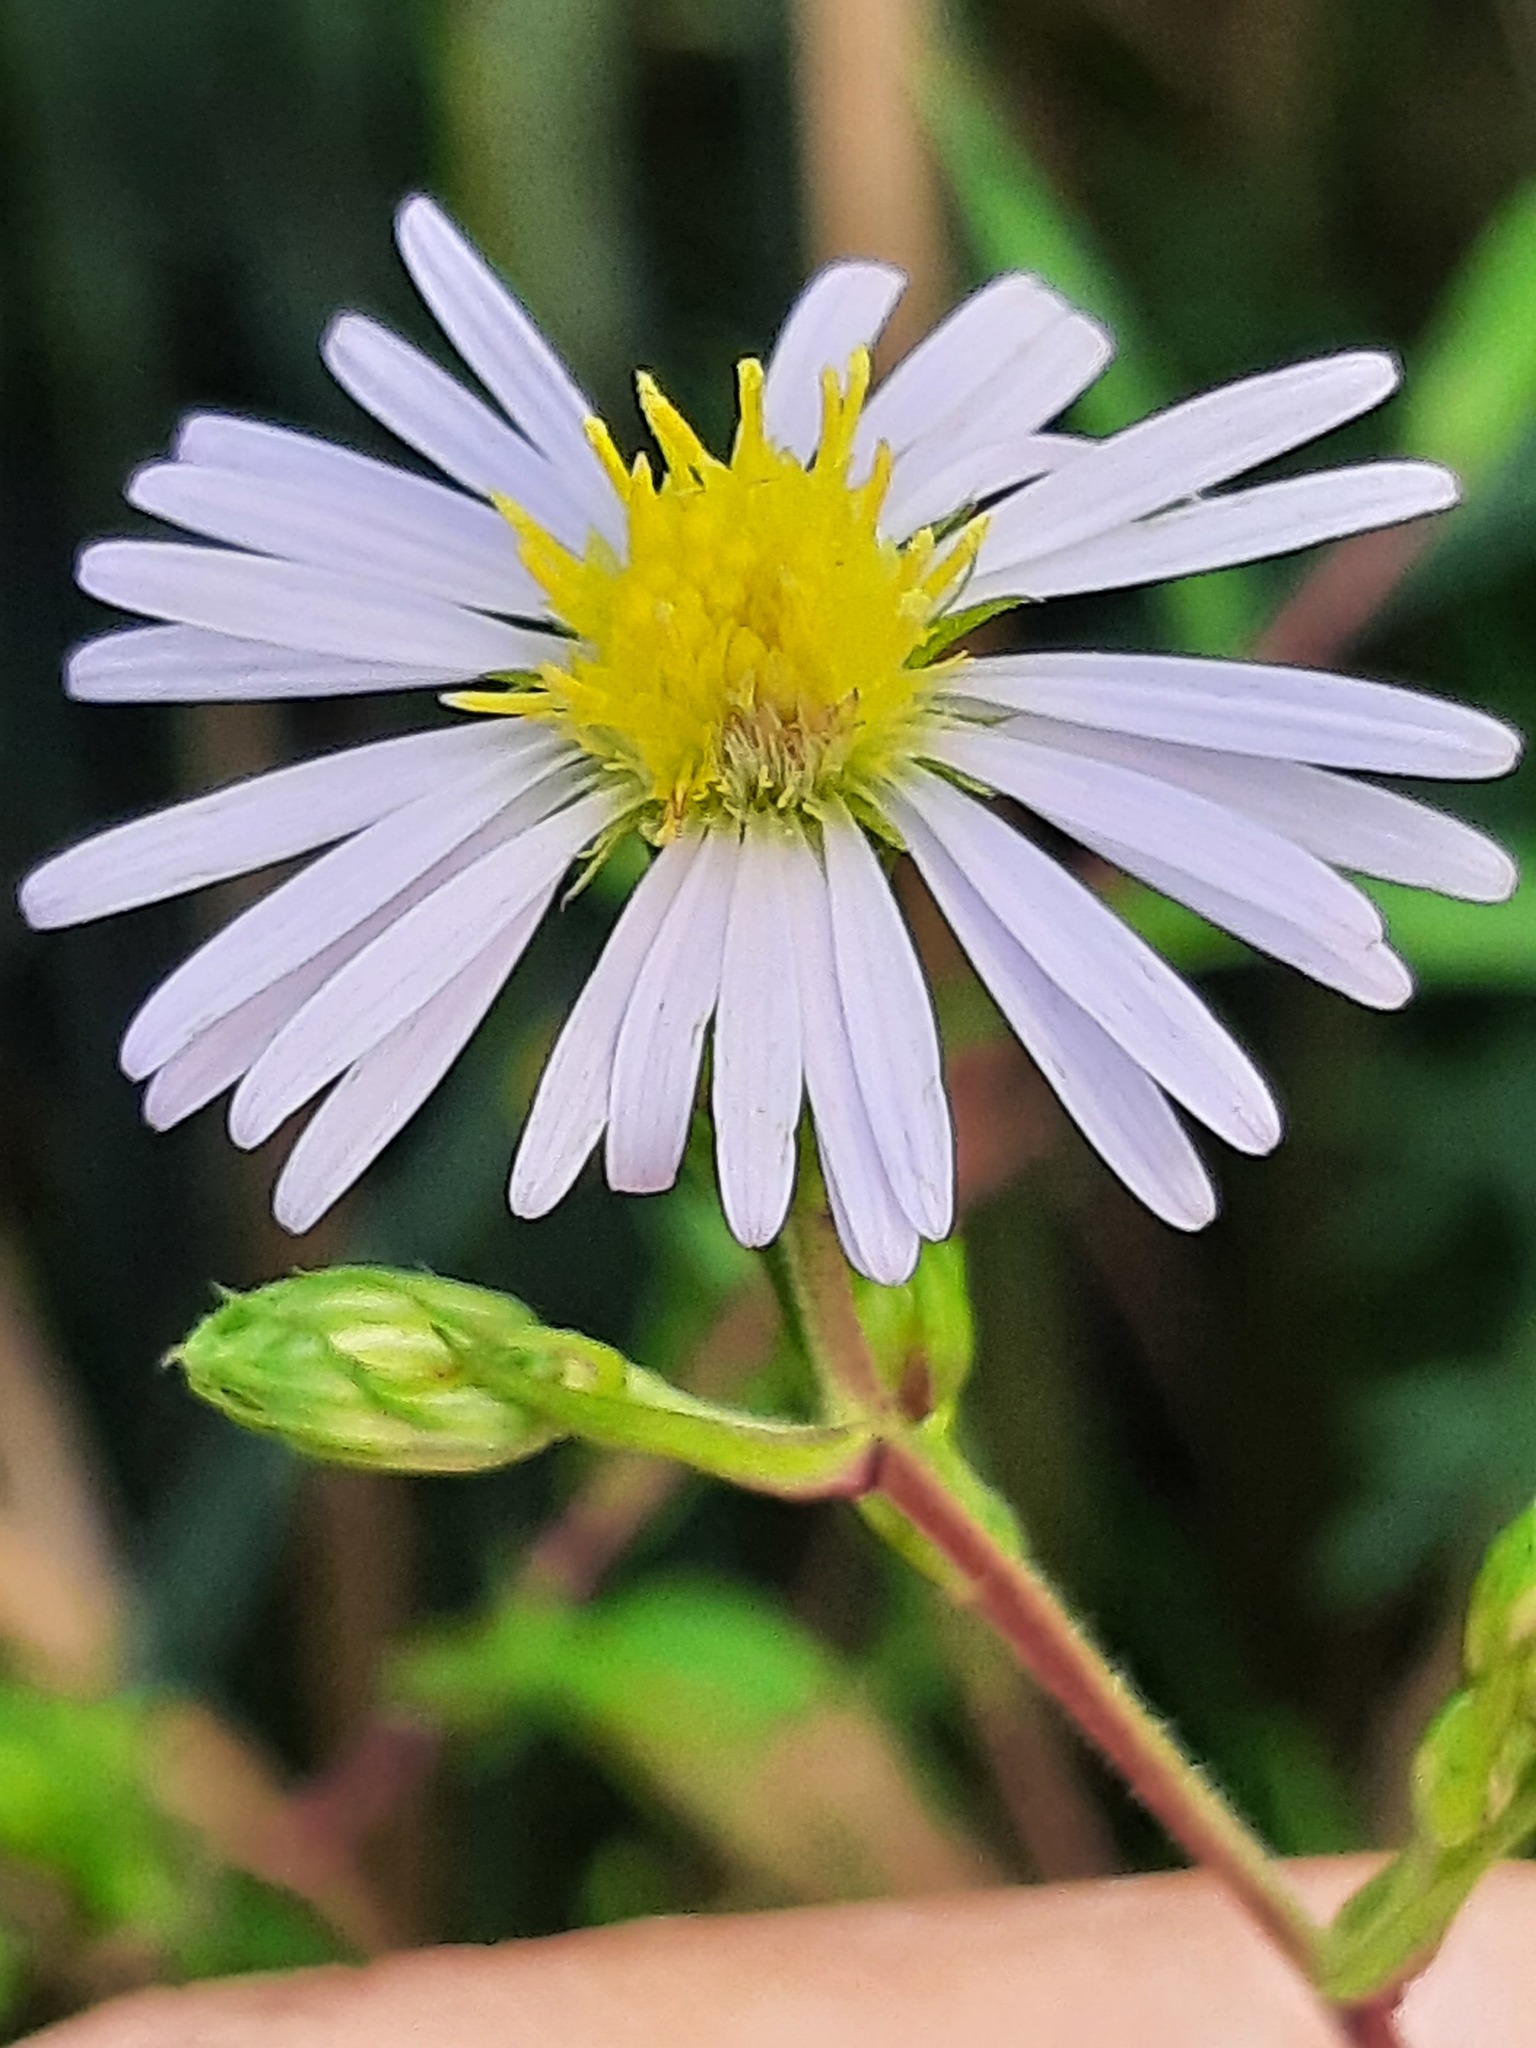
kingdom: Plantae
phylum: Tracheophyta
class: Magnoliopsida
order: Asterales
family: Asteraceae
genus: Symphyotrichum
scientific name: Symphyotrichum puniceum
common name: Bog aster
